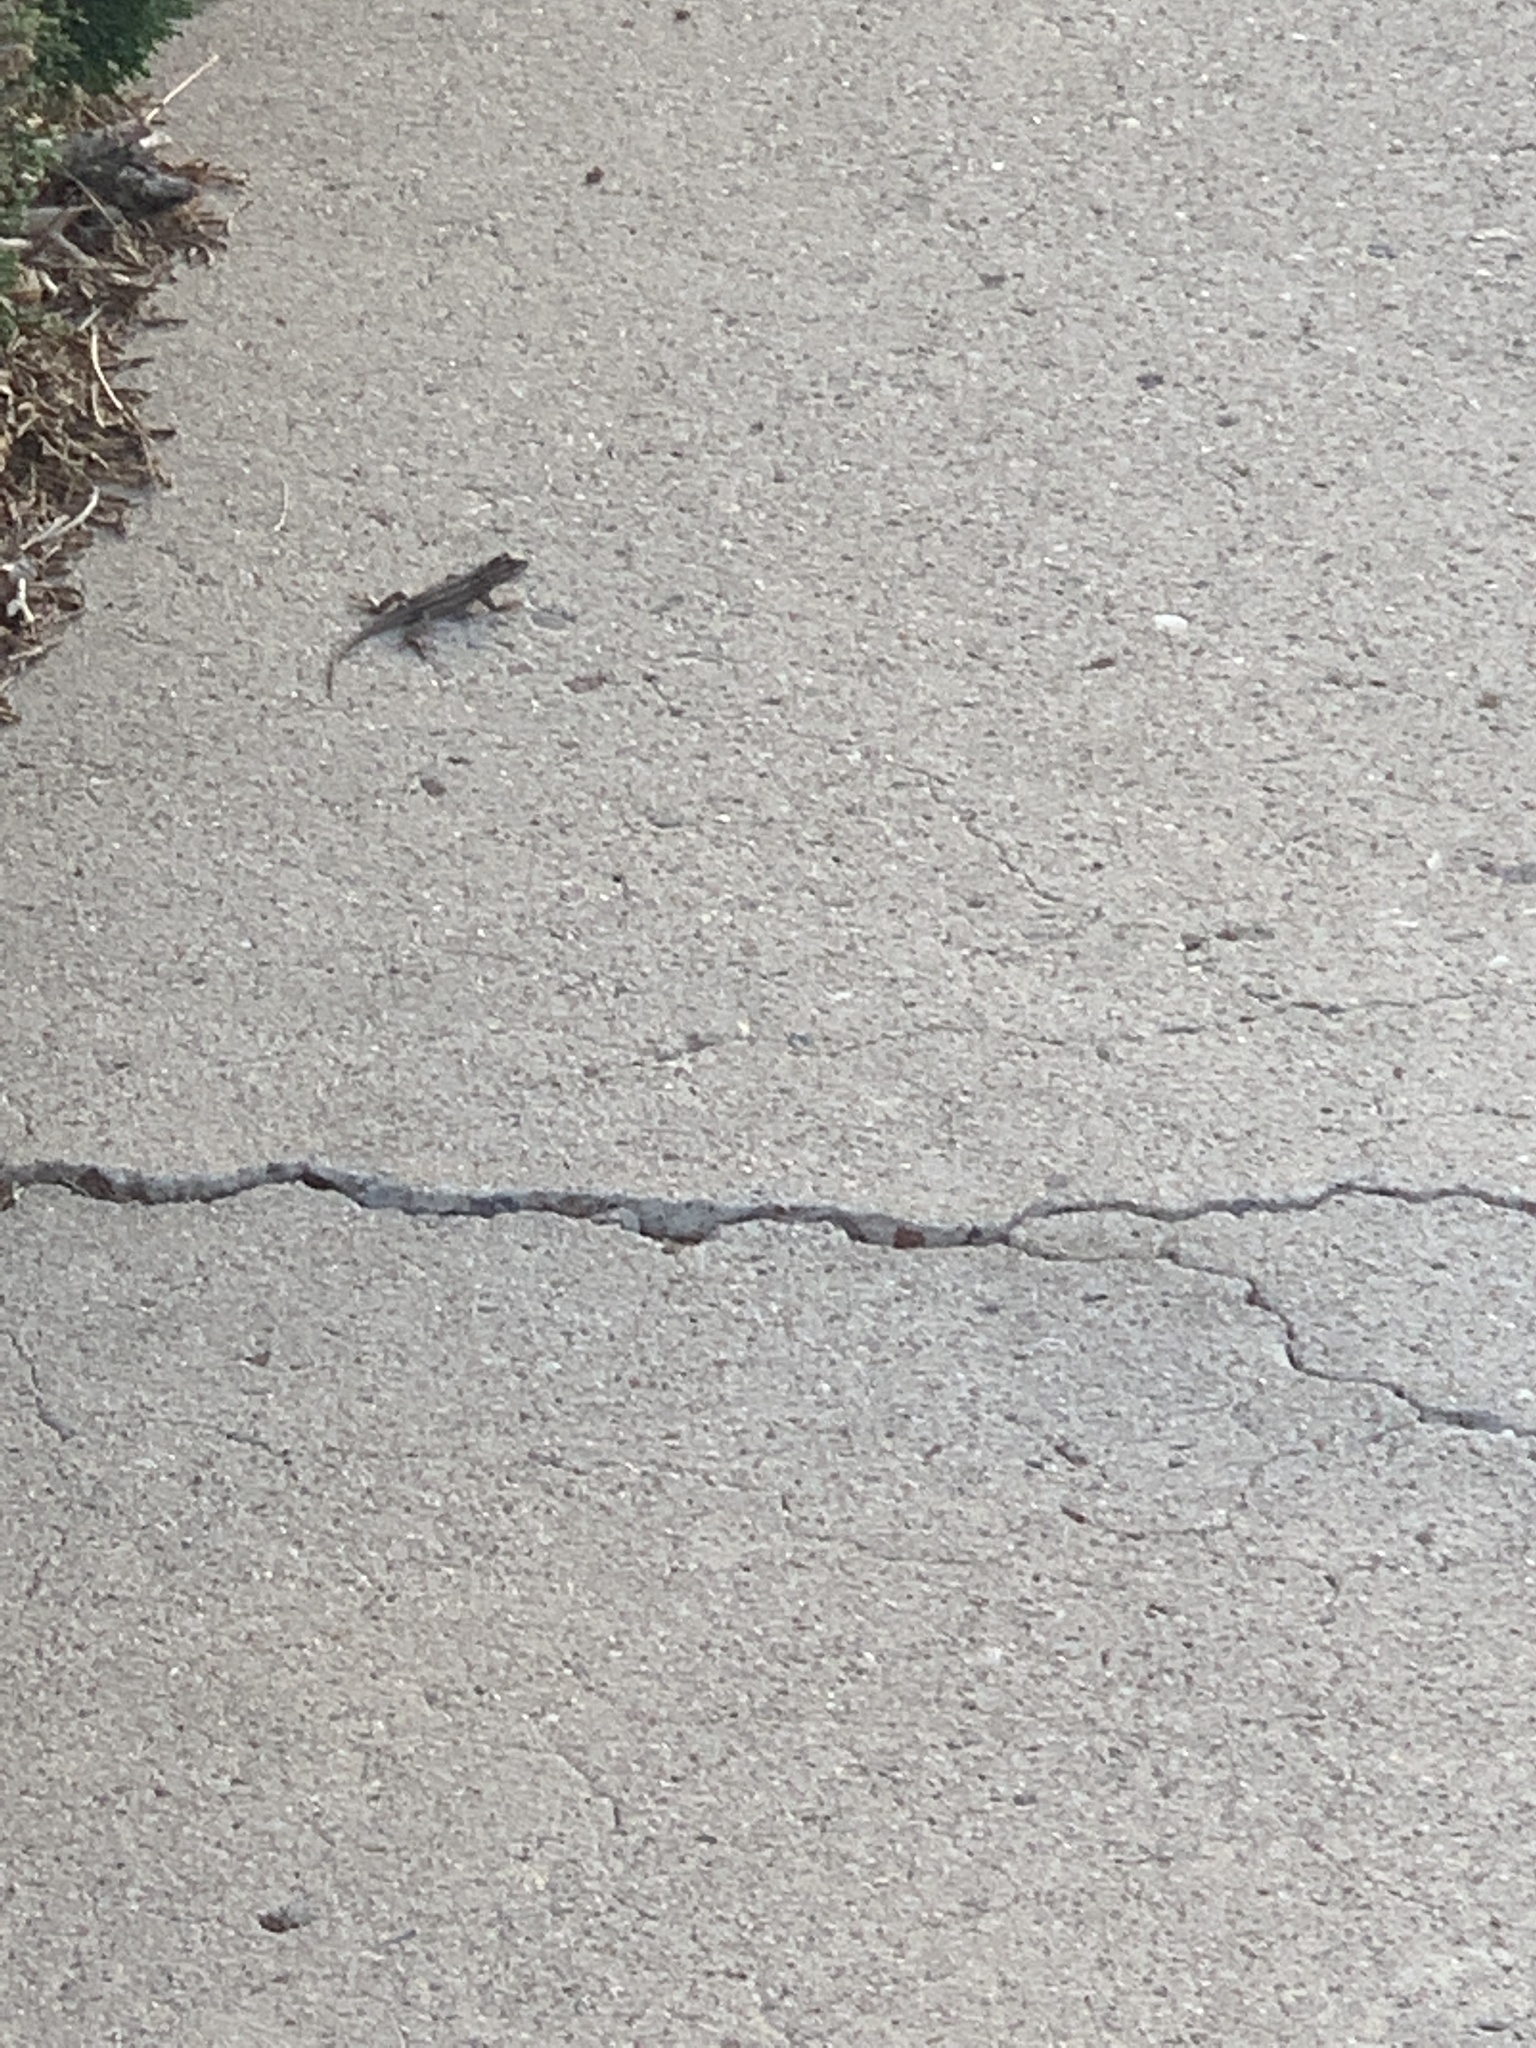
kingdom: Animalia
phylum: Chordata
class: Squamata
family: Phrynosomatidae
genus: Sceloporus
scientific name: Sceloporus cowlesi
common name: White sands prairie lizard
